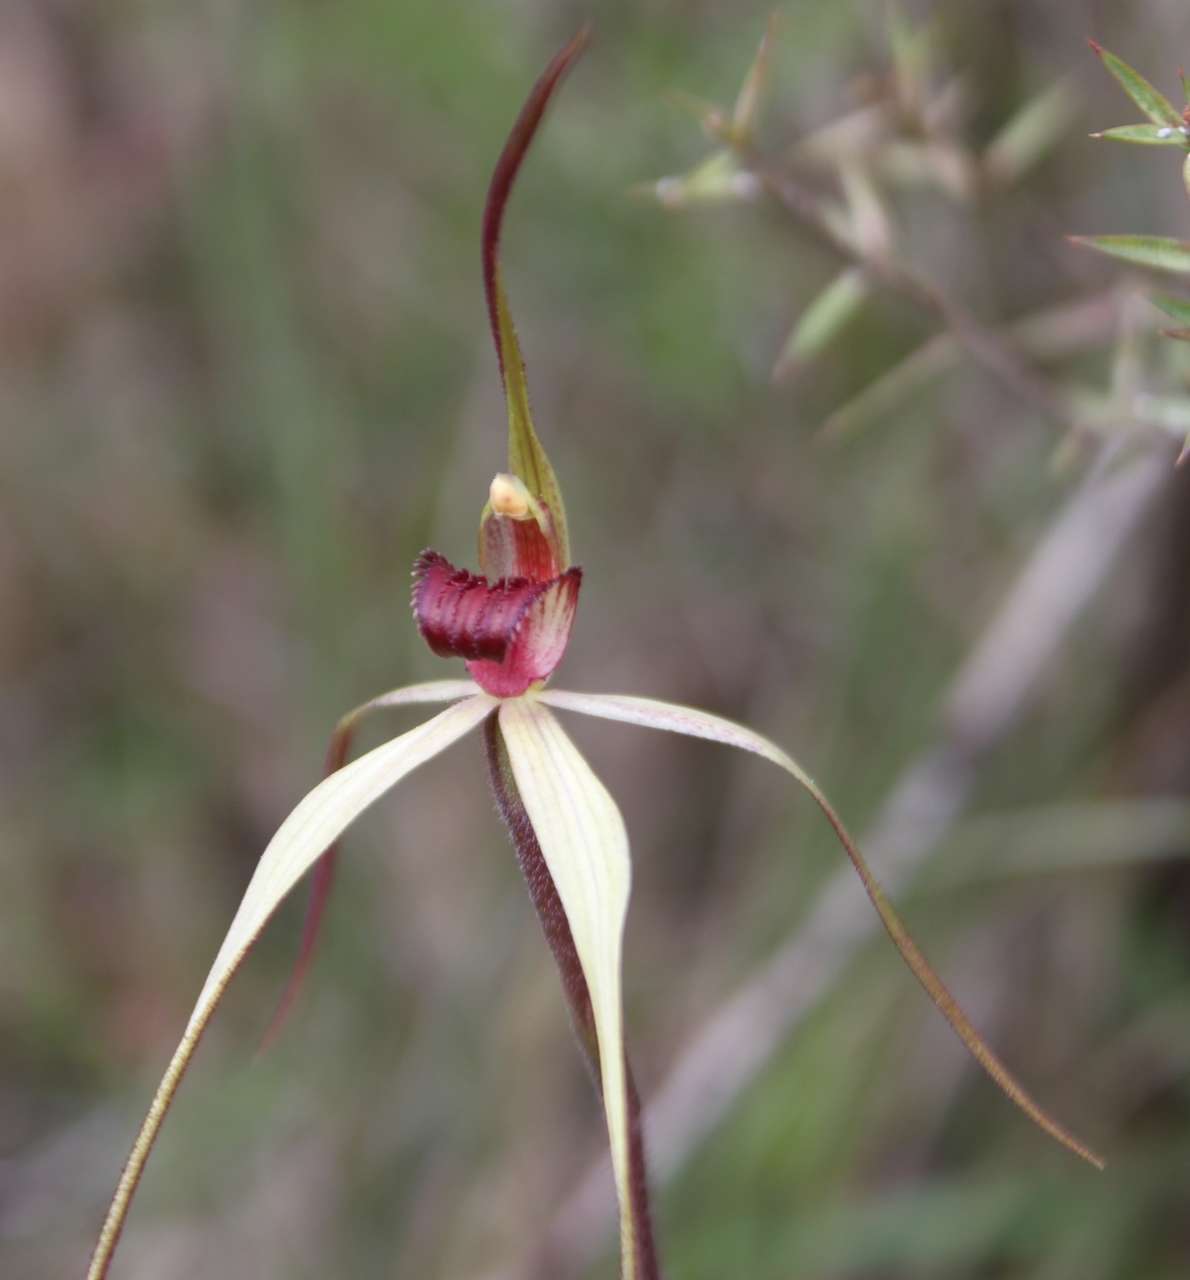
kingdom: Plantae
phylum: Tracheophyta
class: Liliopsida
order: Asparagales
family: Orchidaceae
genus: Caladenia
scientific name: Caladenia oenochila
